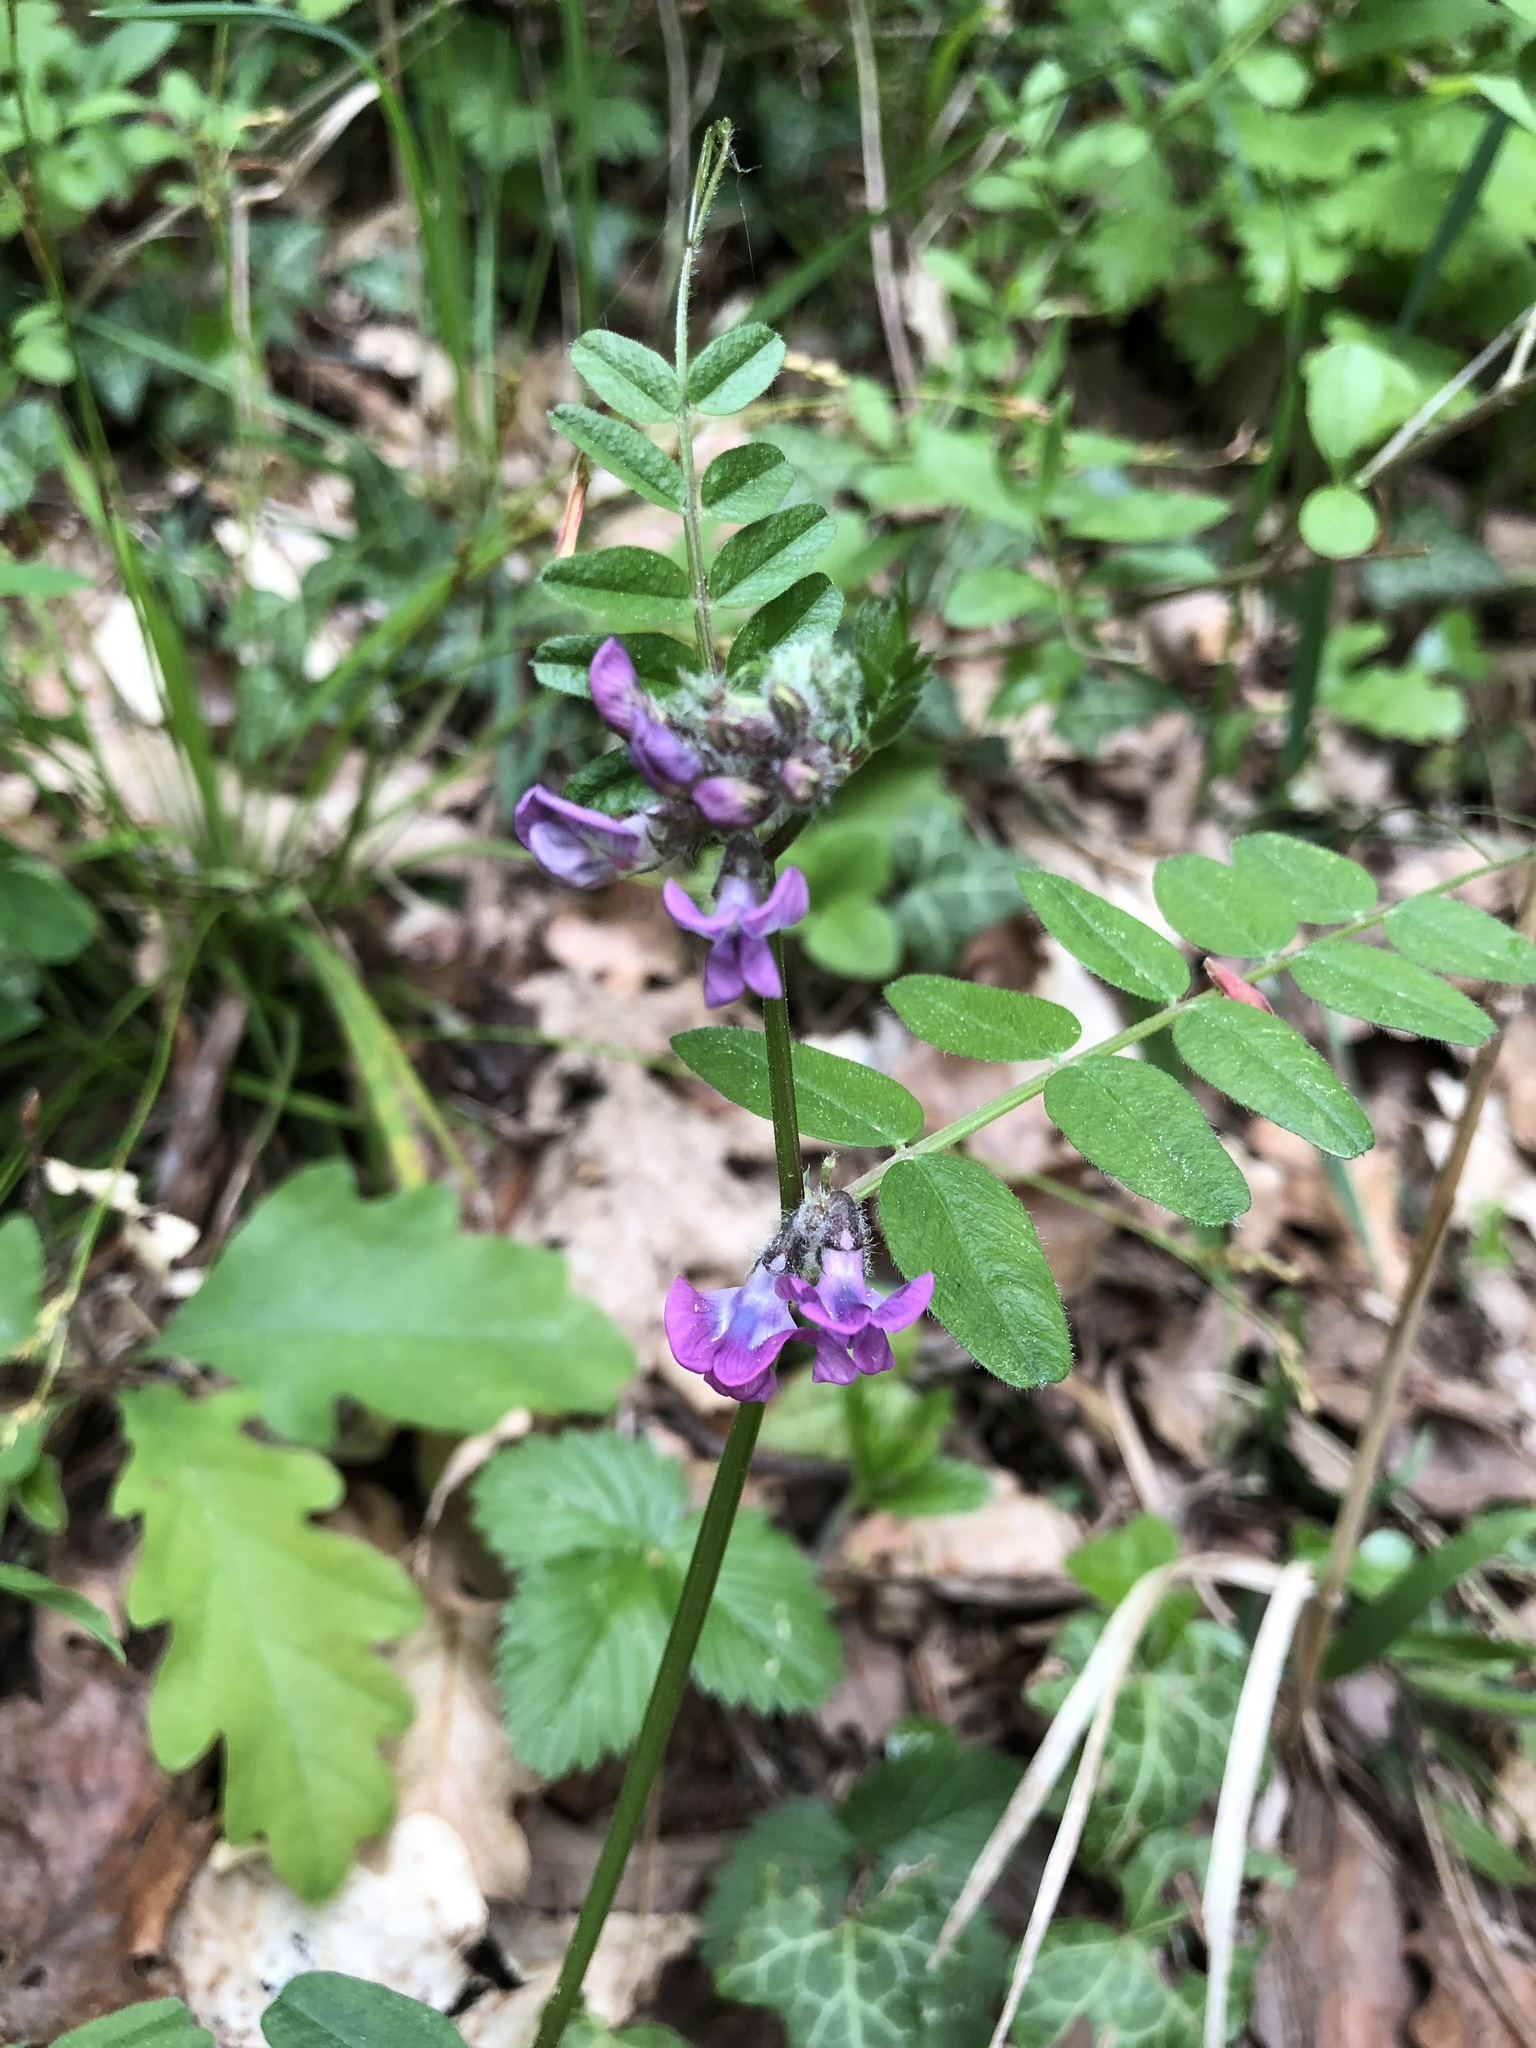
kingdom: Plantae
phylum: Tracheophyta
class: Magnoliopsida
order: Fabales
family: Fabaceae
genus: Vicia
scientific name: Vicia sepium
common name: Bush vetch
